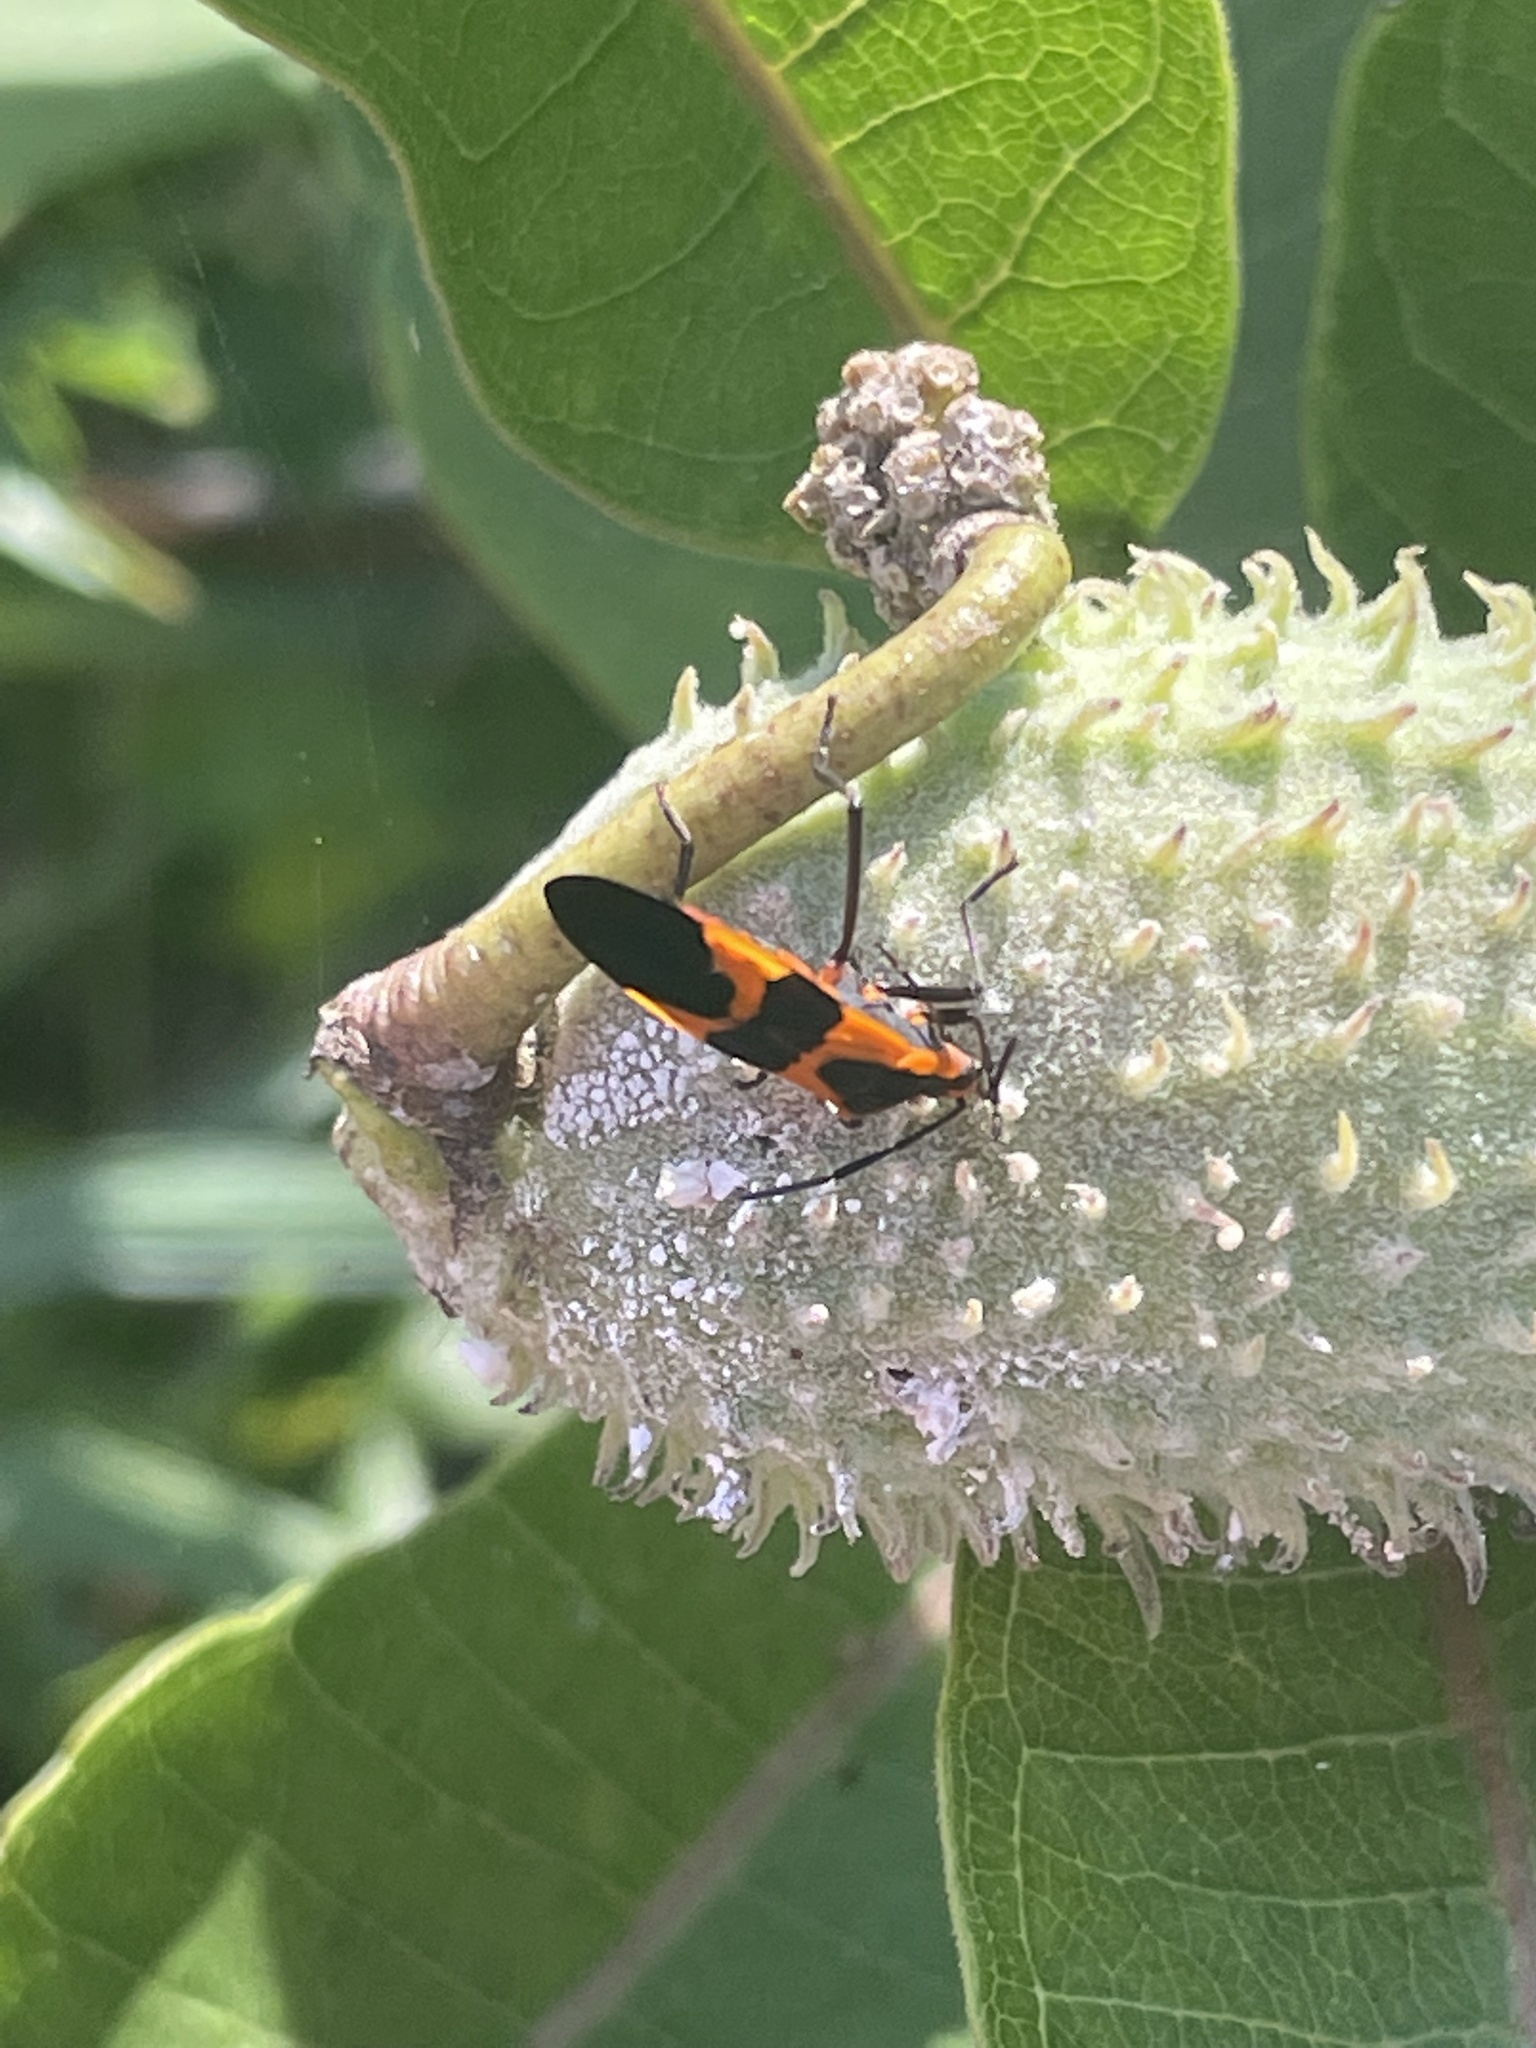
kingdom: Animalia
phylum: Arthropoda
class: Insecta
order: Hemiptera
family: Lygaeidae
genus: Oncopeltus
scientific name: Oncopeltus fasciatus
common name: Large milkweed bug
